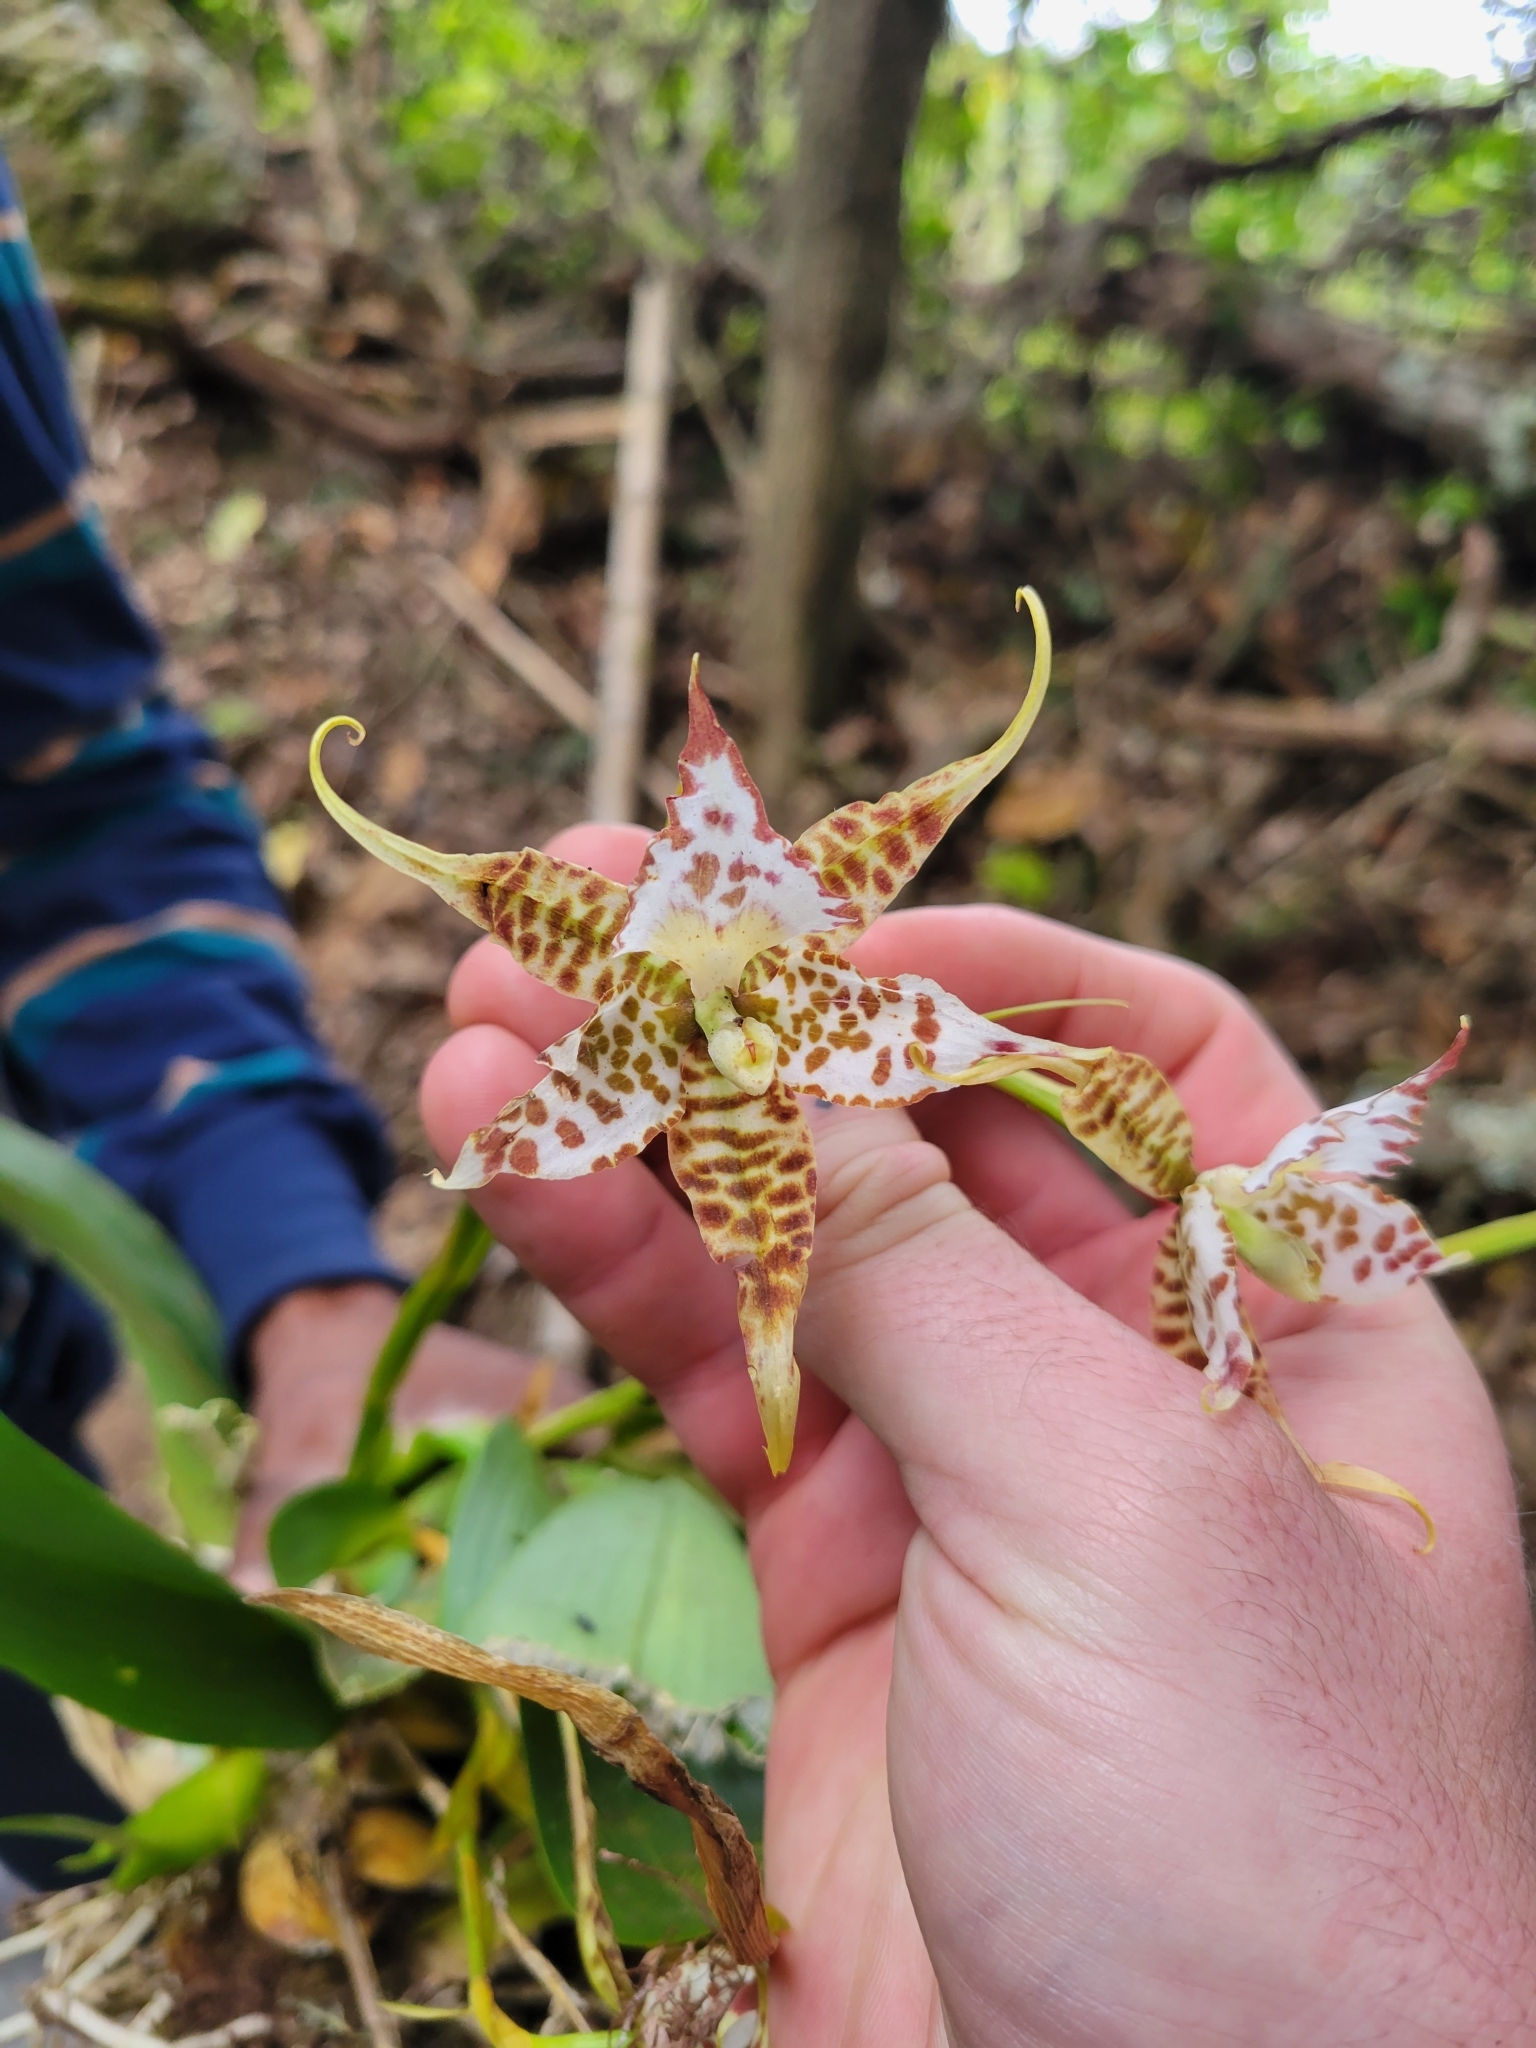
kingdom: Plantae
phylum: Tracheophyta
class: Liliopsida
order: Asparagales
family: Orchidaceae
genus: Rhynchostele
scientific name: Rhynchostele hortensiae
